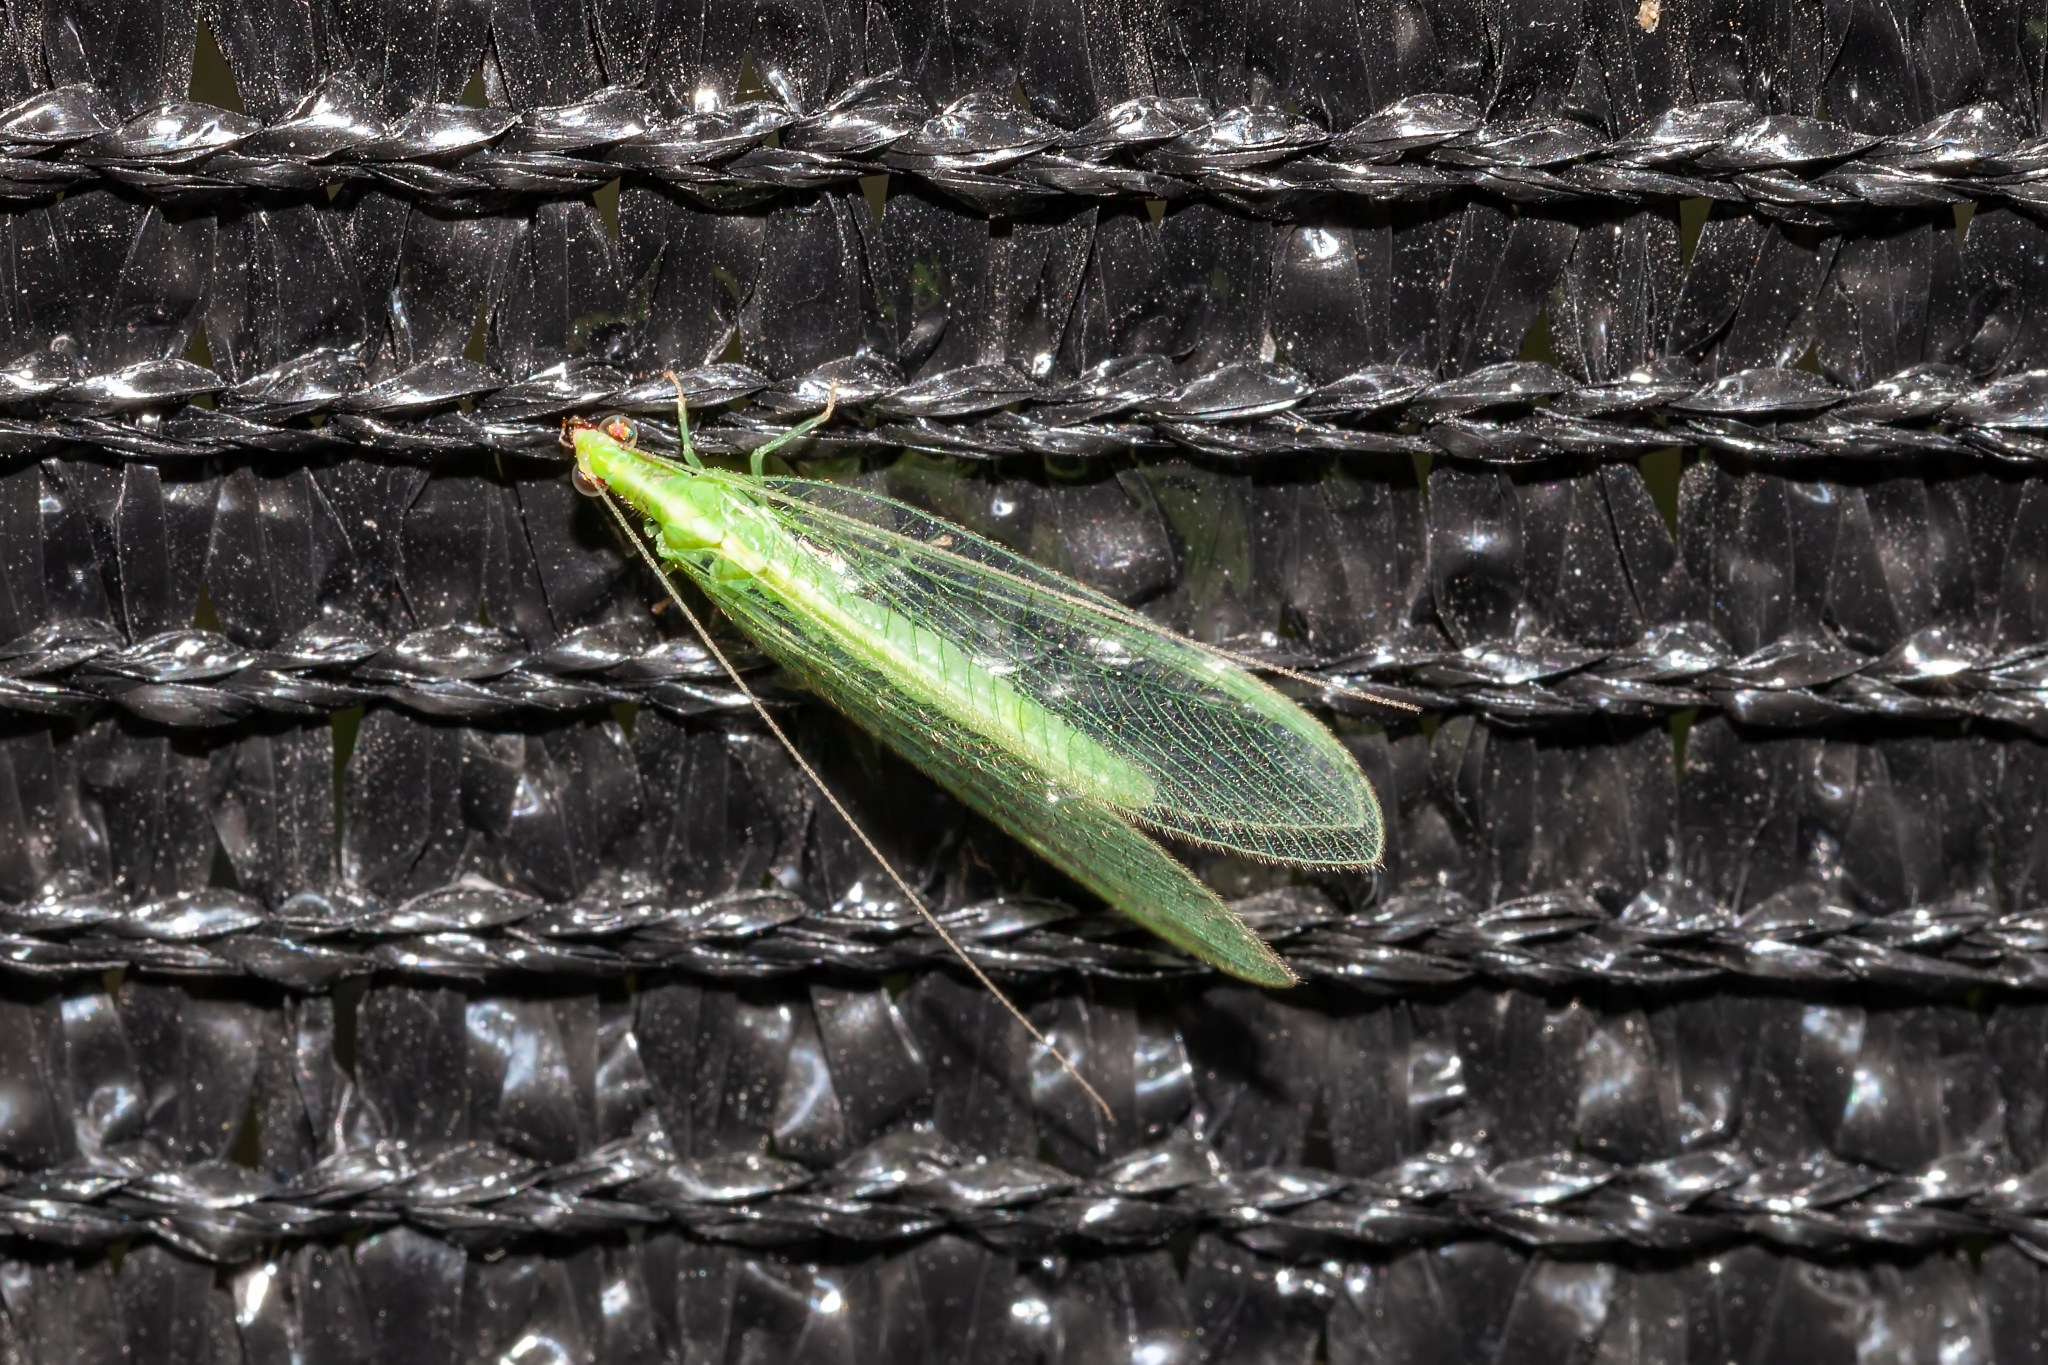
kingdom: Animalia
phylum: Arthropoda
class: Insecta
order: Neuroptera
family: Chrysopidae
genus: Chrysoperla
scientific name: Chrysoperla rufilabris
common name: Red-lipped green lacewing
